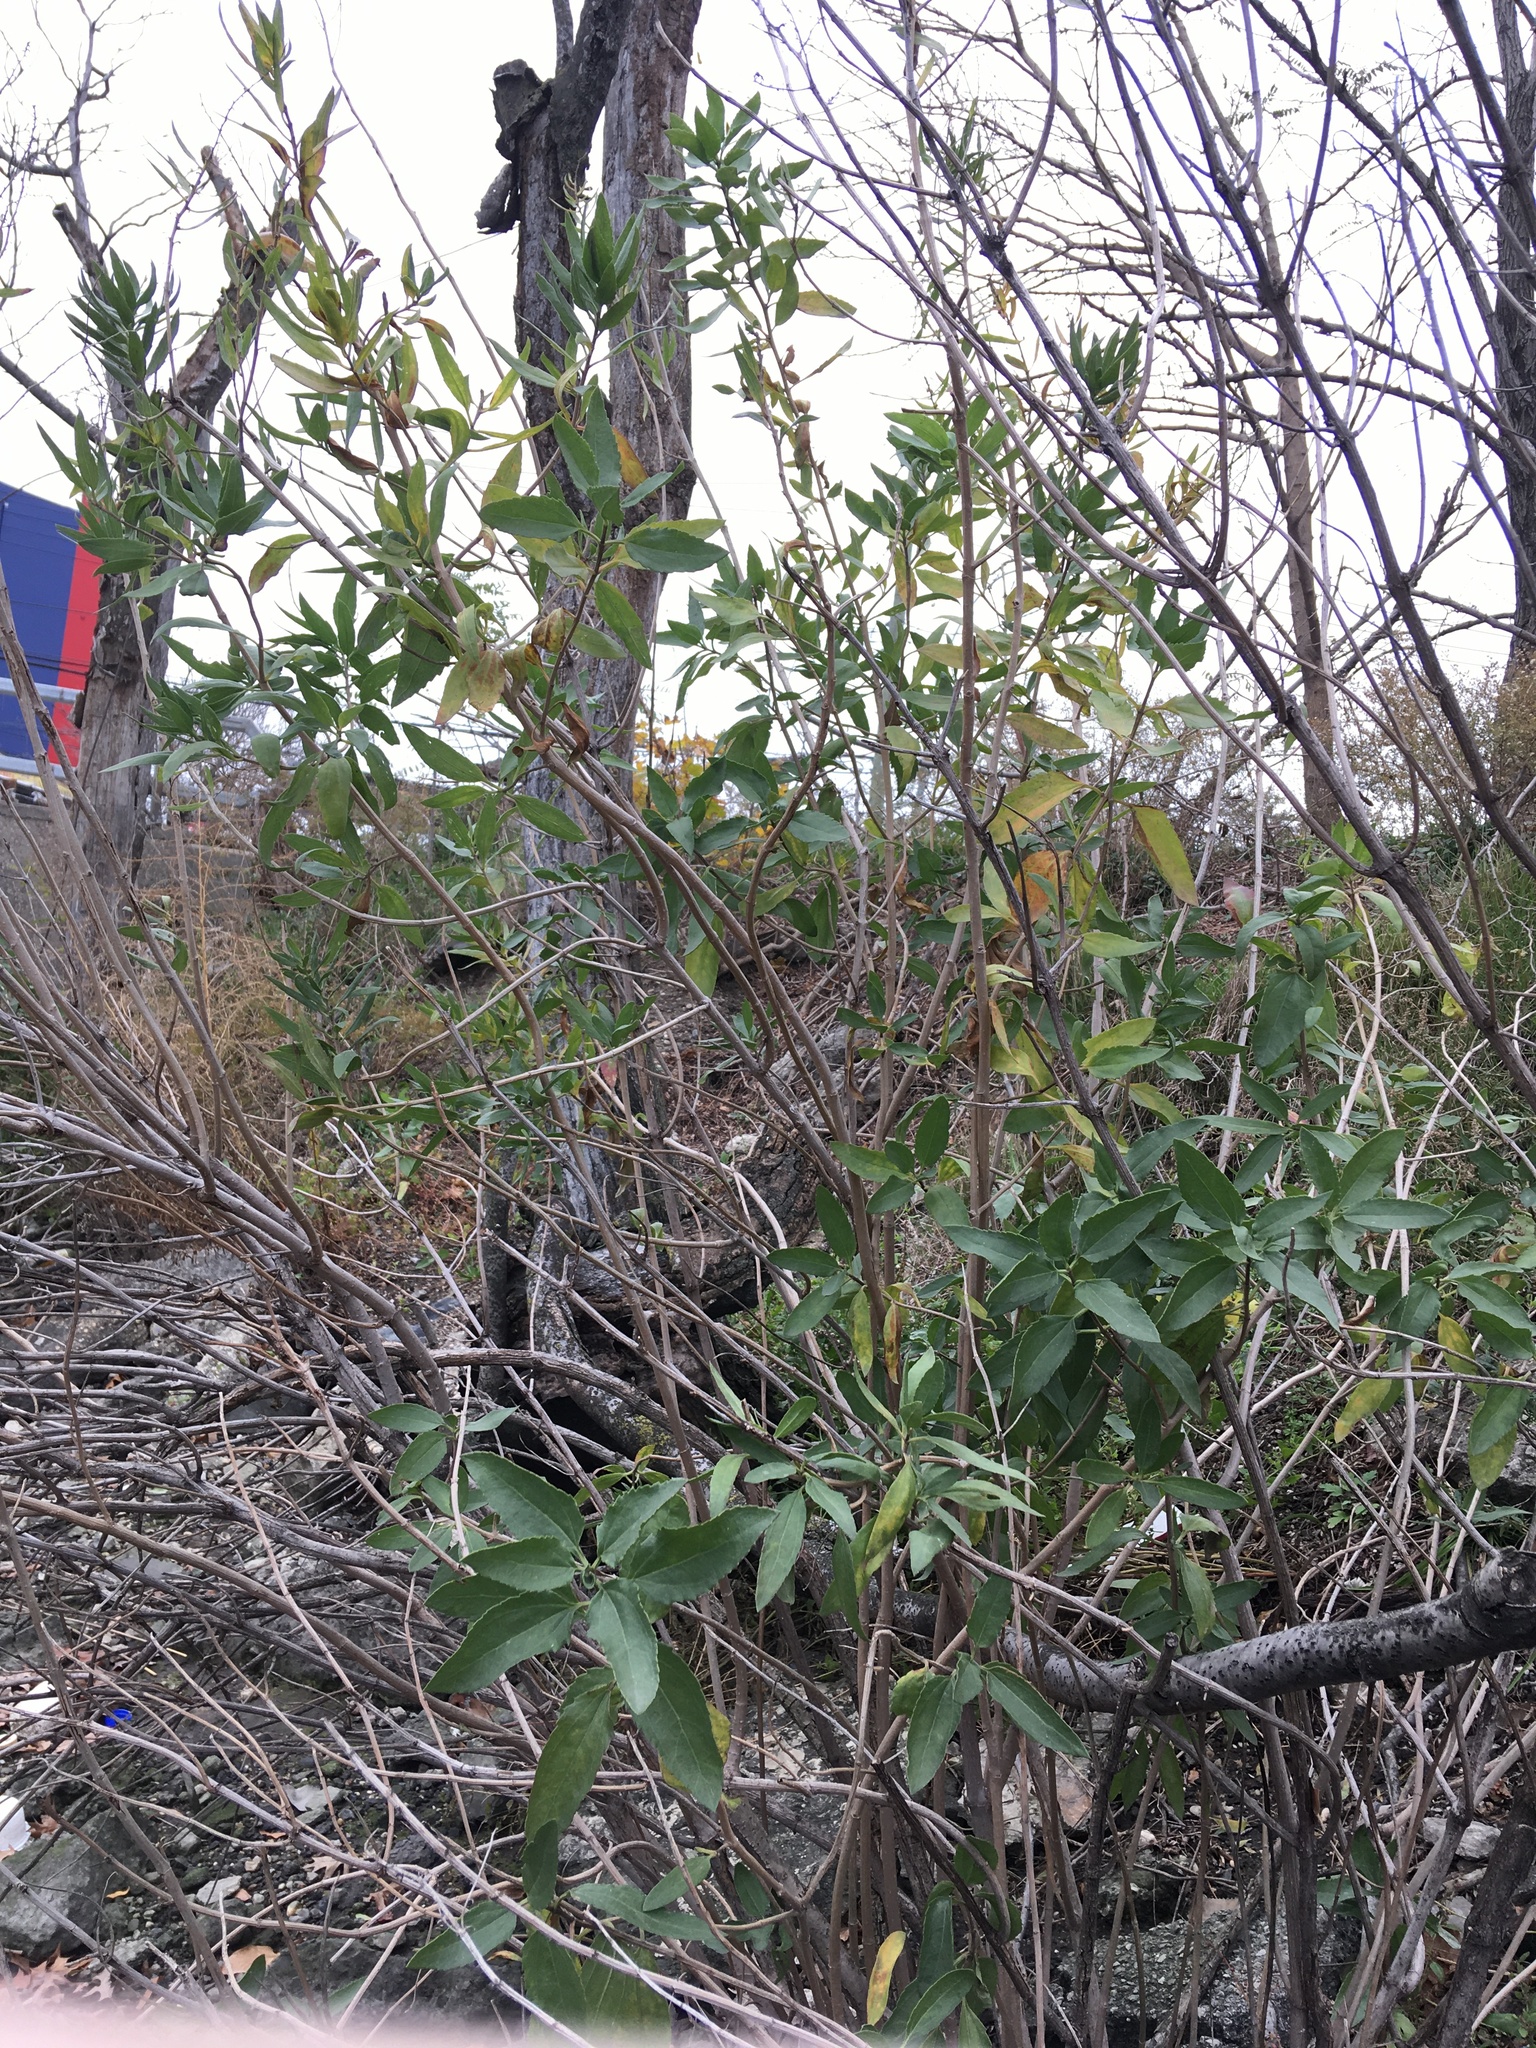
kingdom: Plantae
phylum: Tracheophyta
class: Magnoliopsida
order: Asterales
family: Asteraceae
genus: Iva
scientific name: Iva frutescens
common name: Big-leaved marsh-elder
